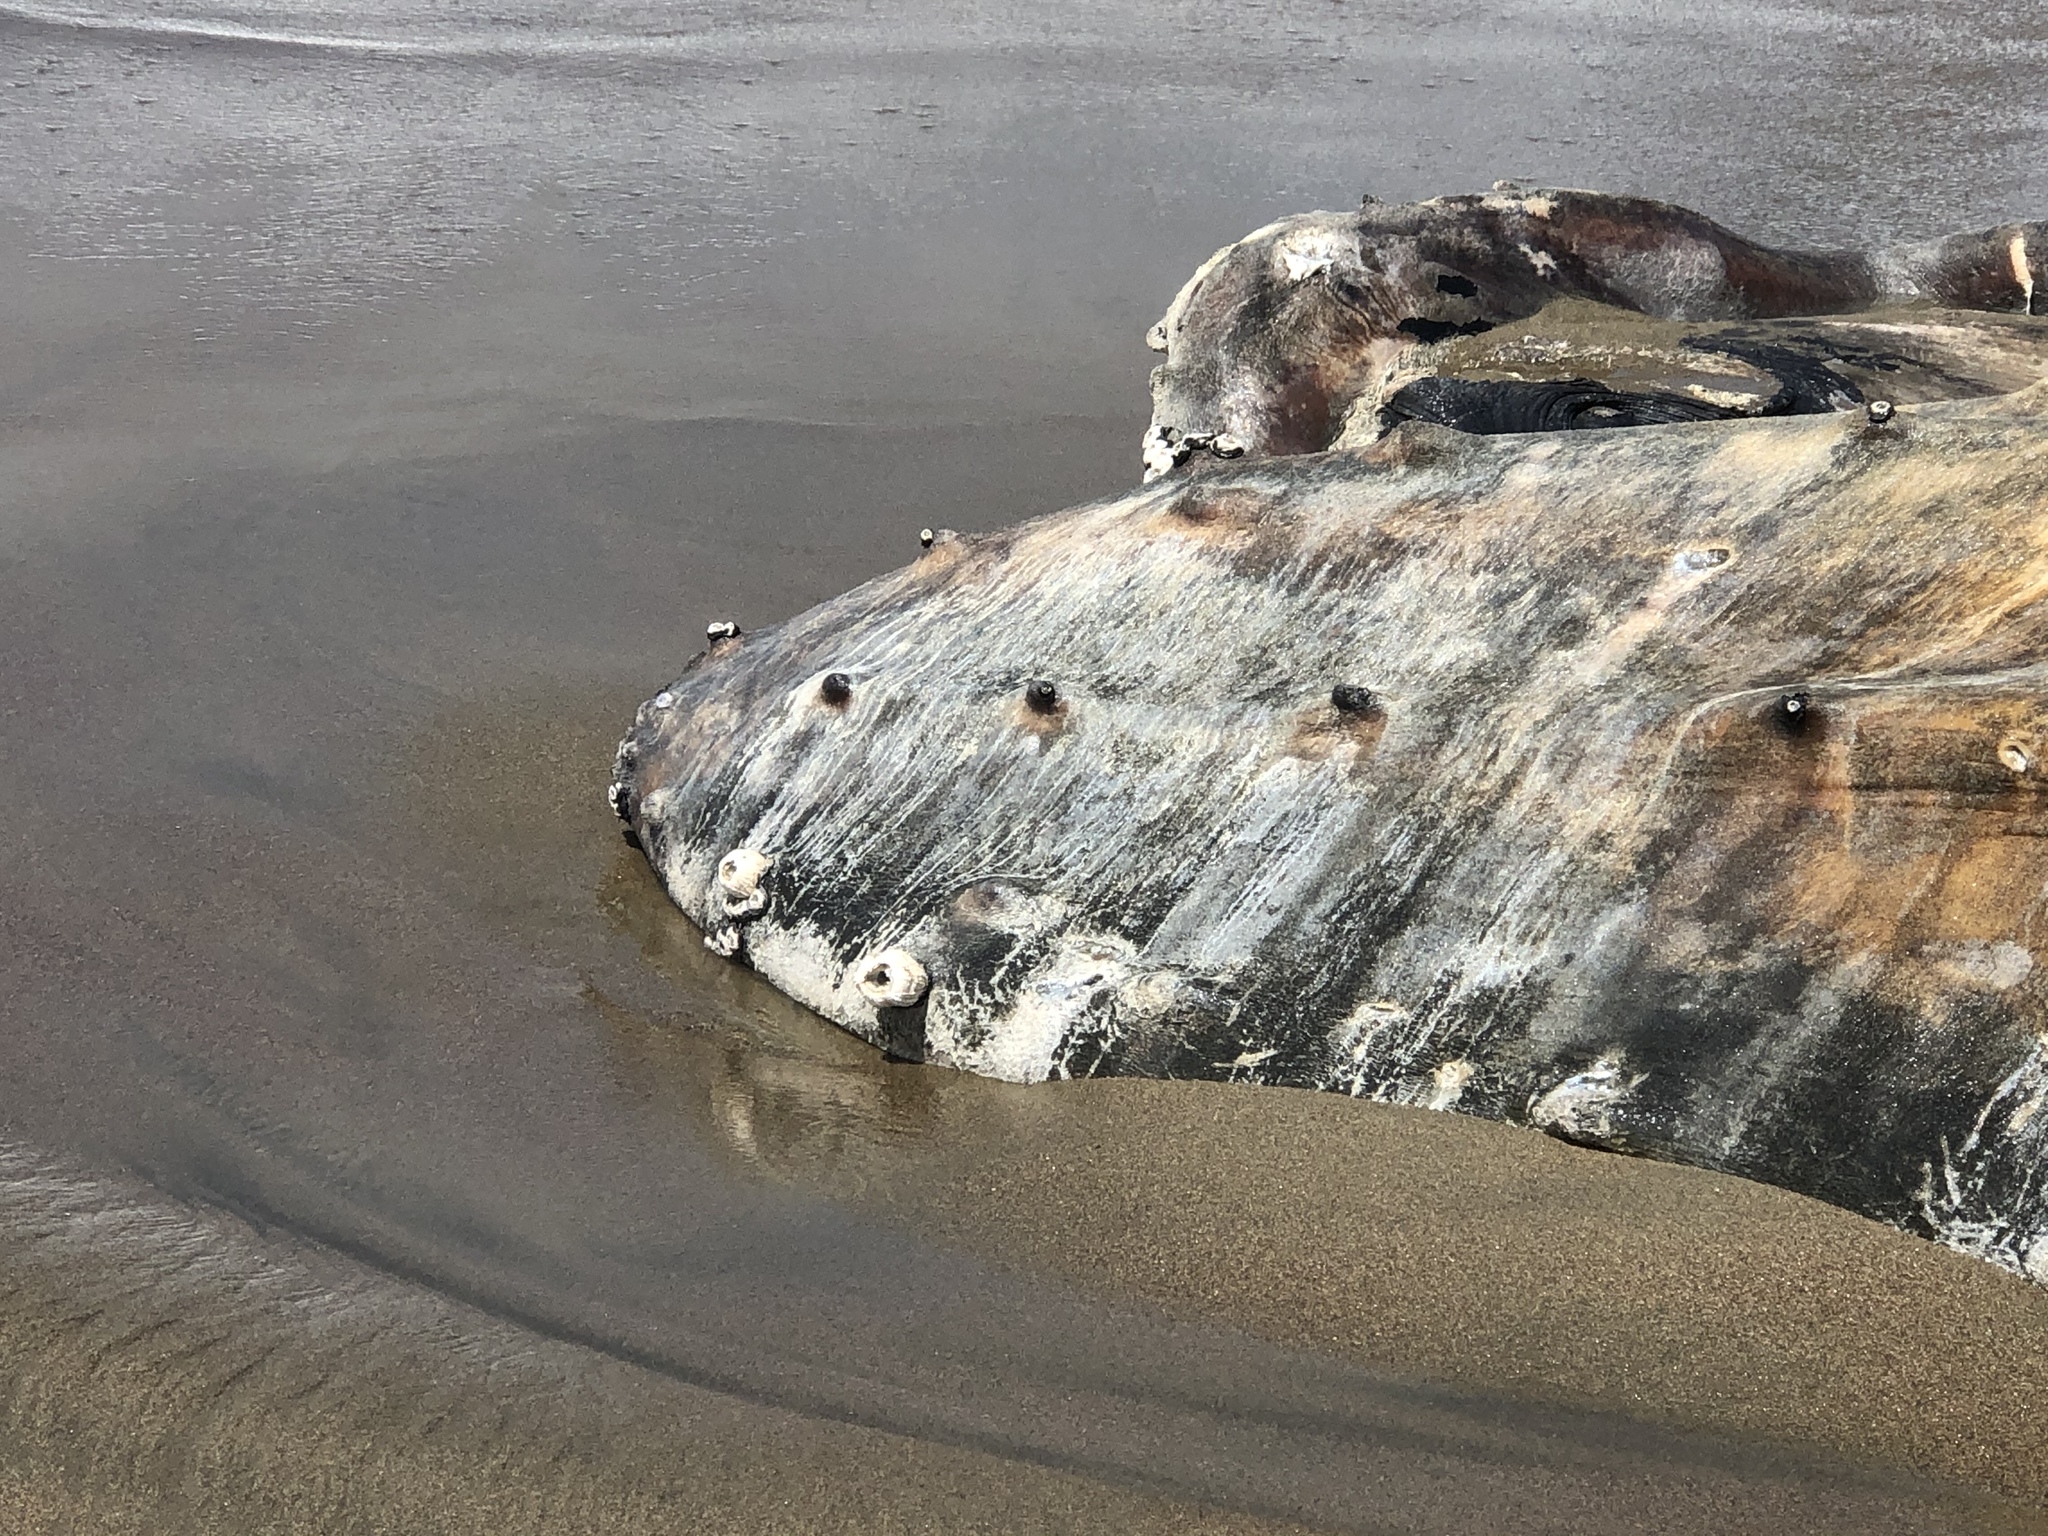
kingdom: Animalia
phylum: Chordata
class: Mammalia
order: Cetacea
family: Balaenopteridae
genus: Megaptera
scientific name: Megaptera novaeangliae
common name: Humpback whale
